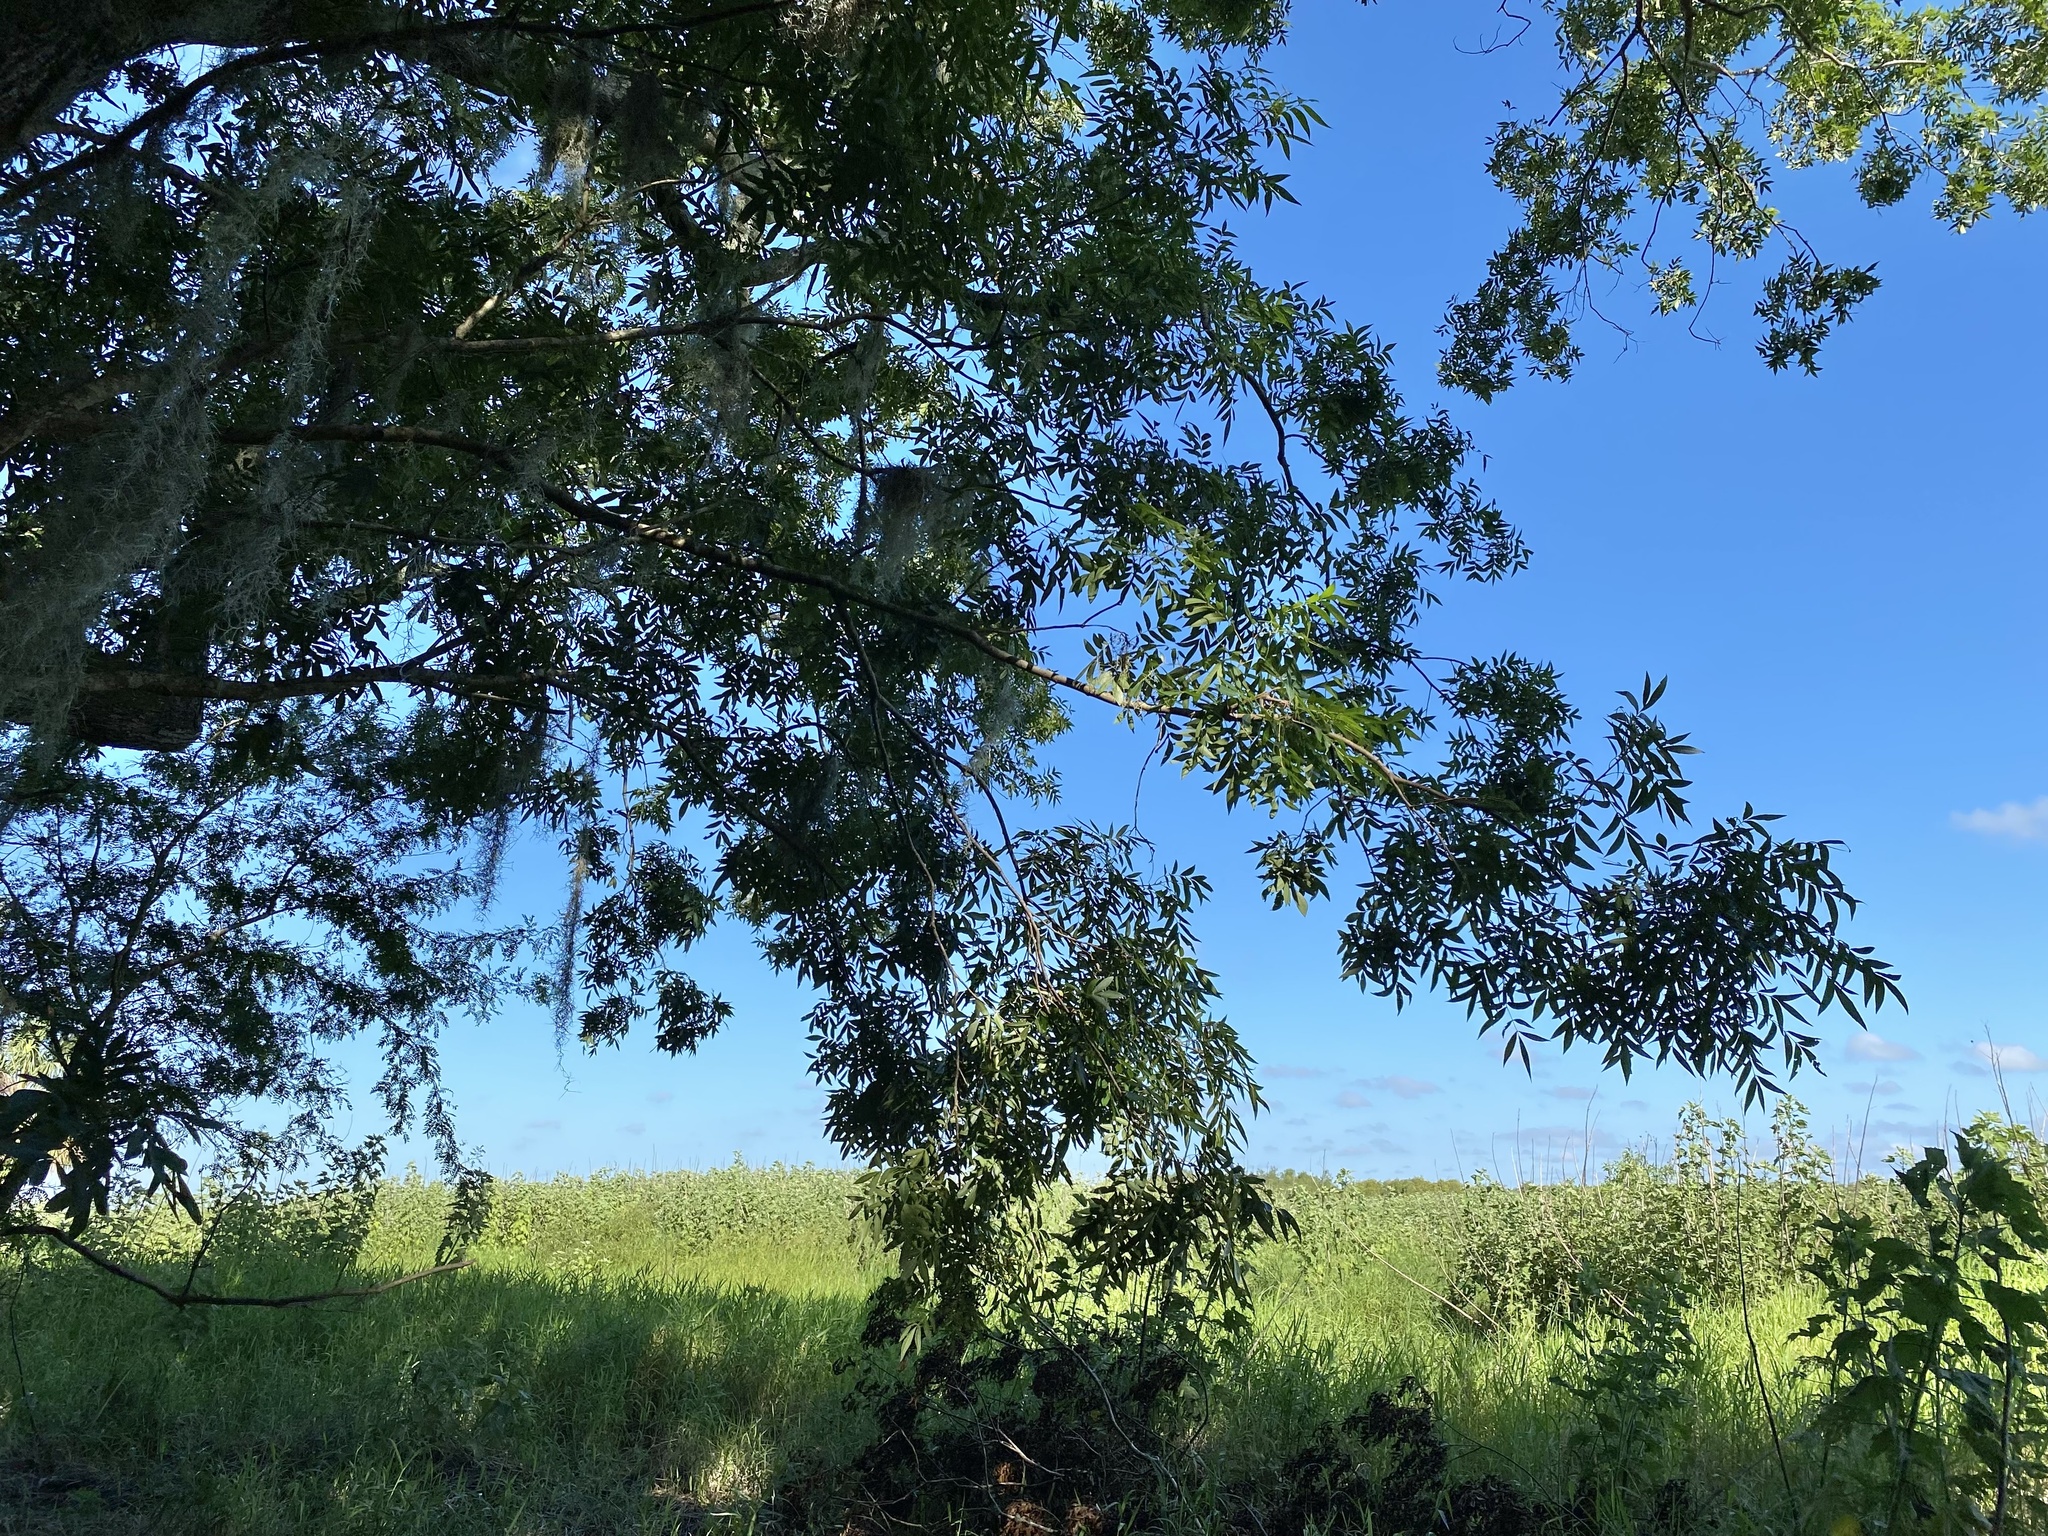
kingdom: Plantae
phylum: Tracheophyta
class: Magnoliopsida
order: Fagales
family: Juglandaceae
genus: Carya
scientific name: Carya aquatica
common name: Water hickory
